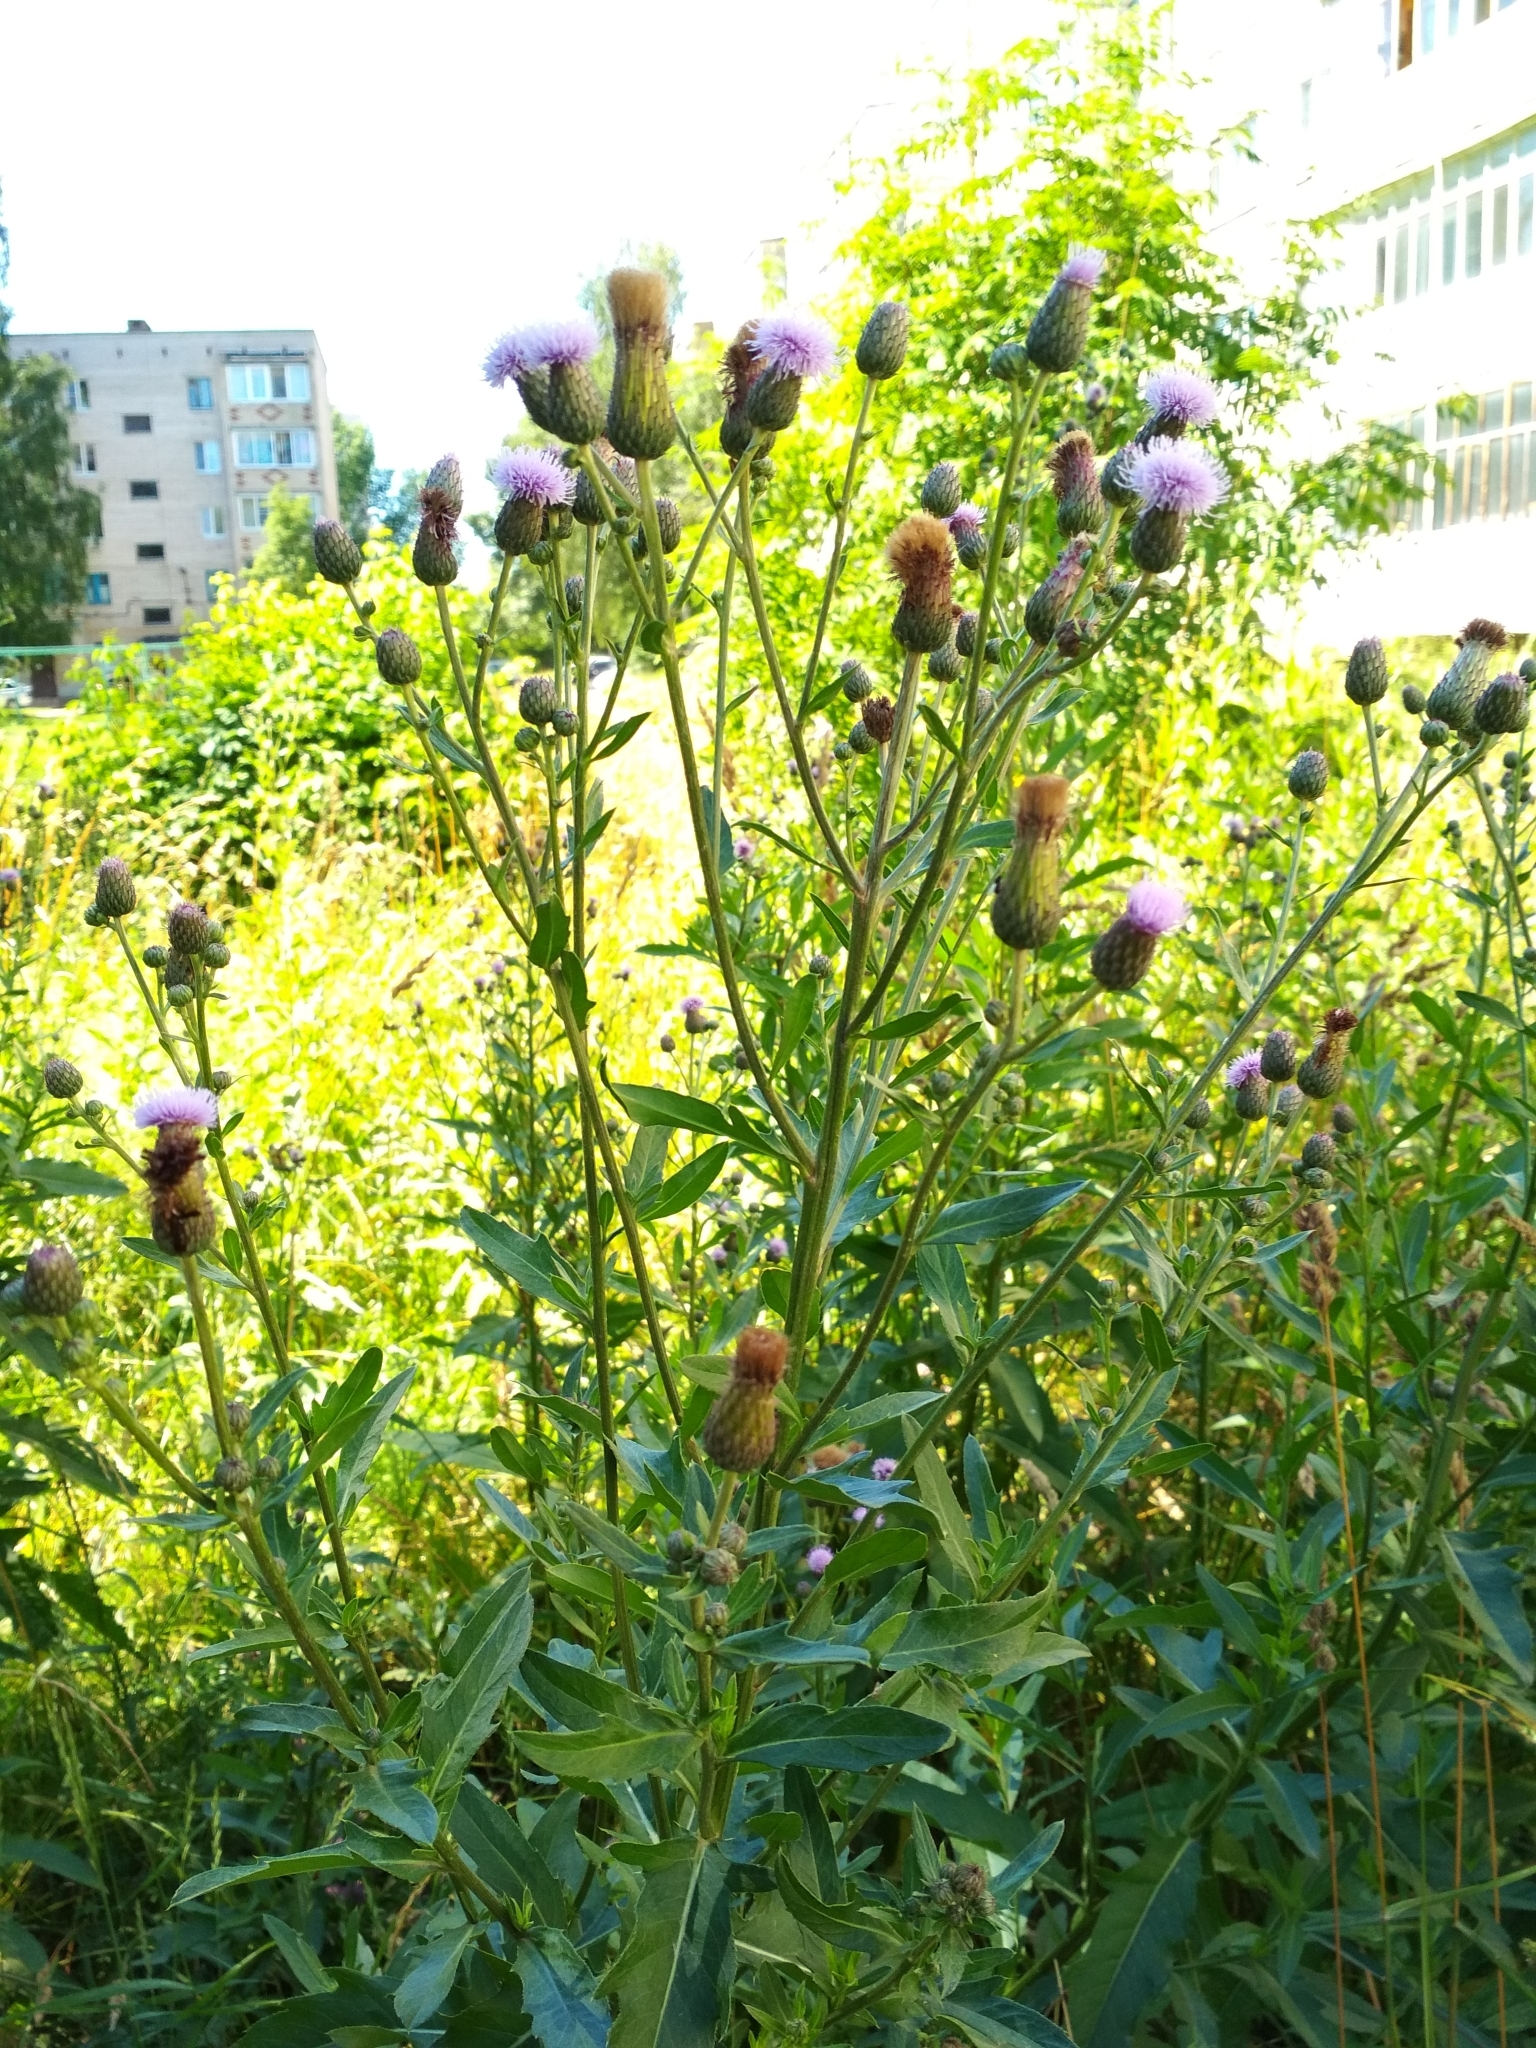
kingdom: Plantae
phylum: Tracheophyta
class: Magnoliopsida
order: Asterales
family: Asteraceae
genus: Cirsium
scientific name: Cirsium arvense
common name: Creeping thistle
